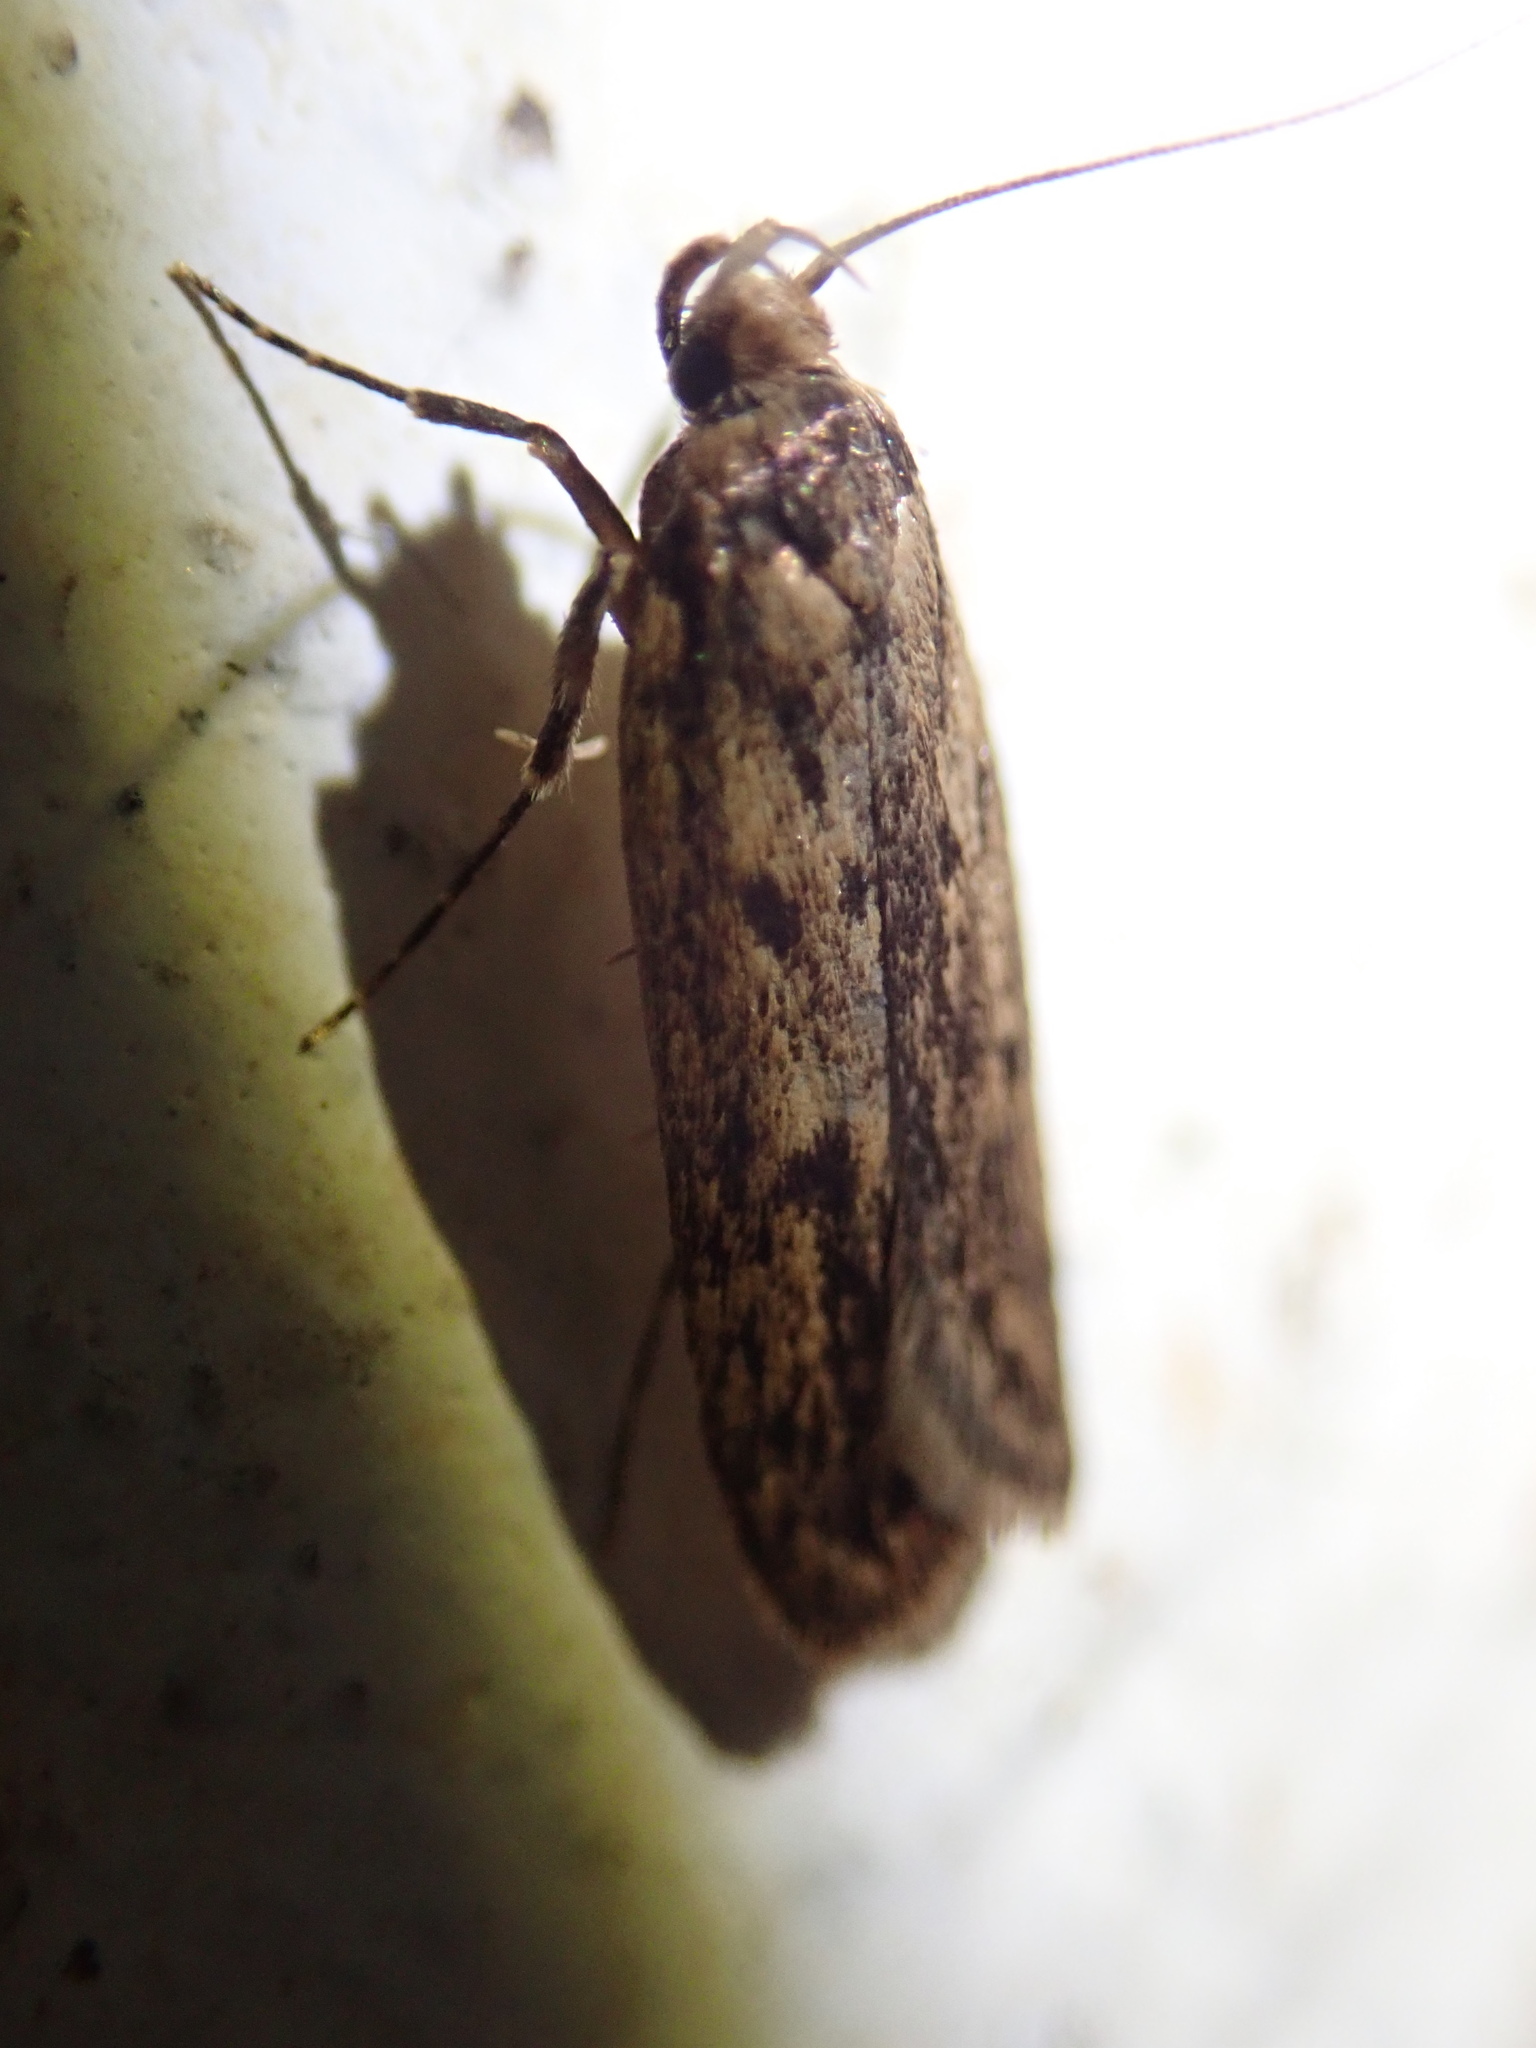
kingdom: Animalia
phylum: Arthropoda
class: Insecta
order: Lepidoptera
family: Oecophoridae
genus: Hofmannophila
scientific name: Hofmannophila pseudospretella
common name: Brown house moth
